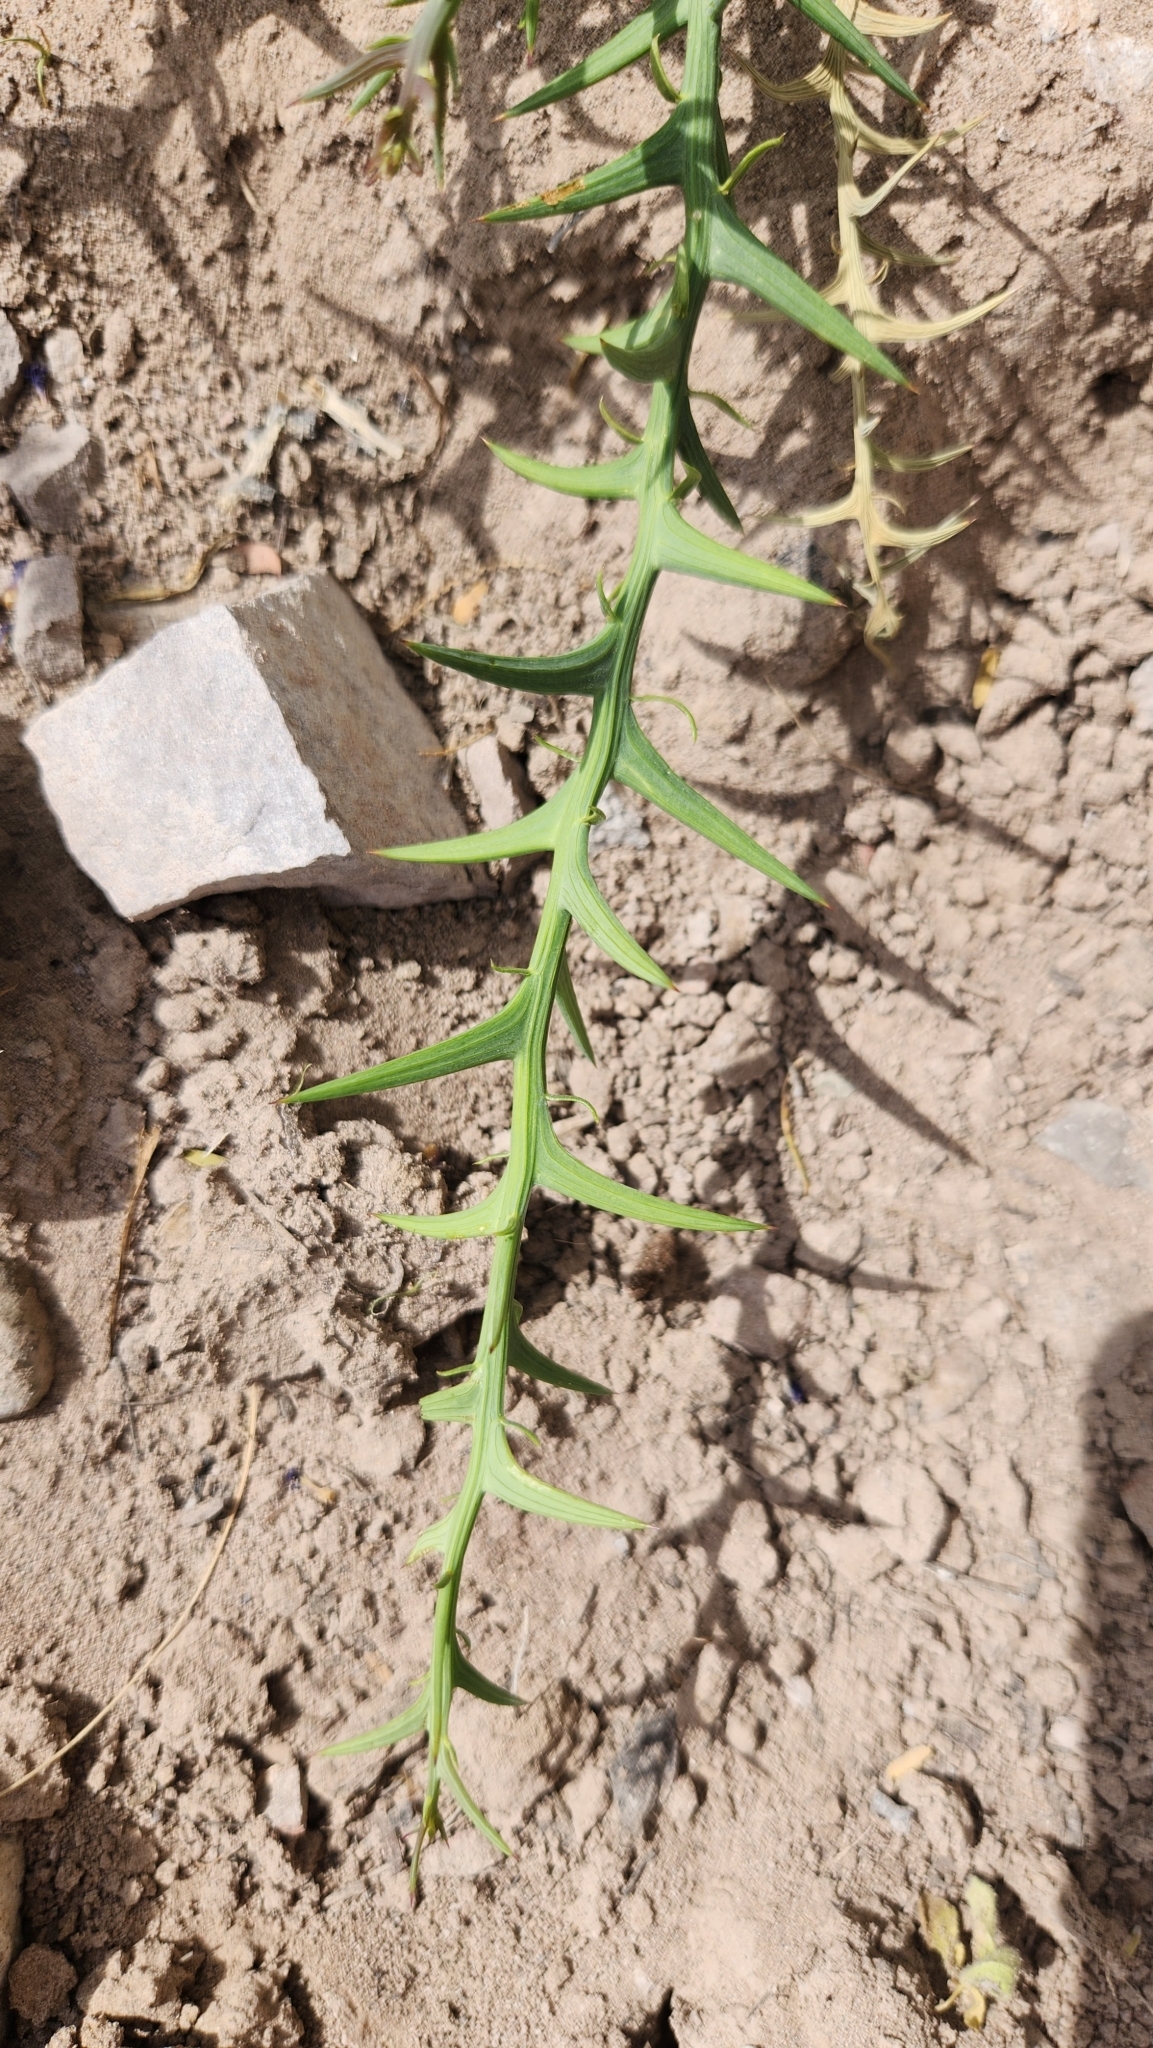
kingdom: Plantae
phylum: Tracheophyta
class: Magnoliopsida
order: Asterales
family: Asteraceae
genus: Chloracantha
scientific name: Chloracantha spinosissima
